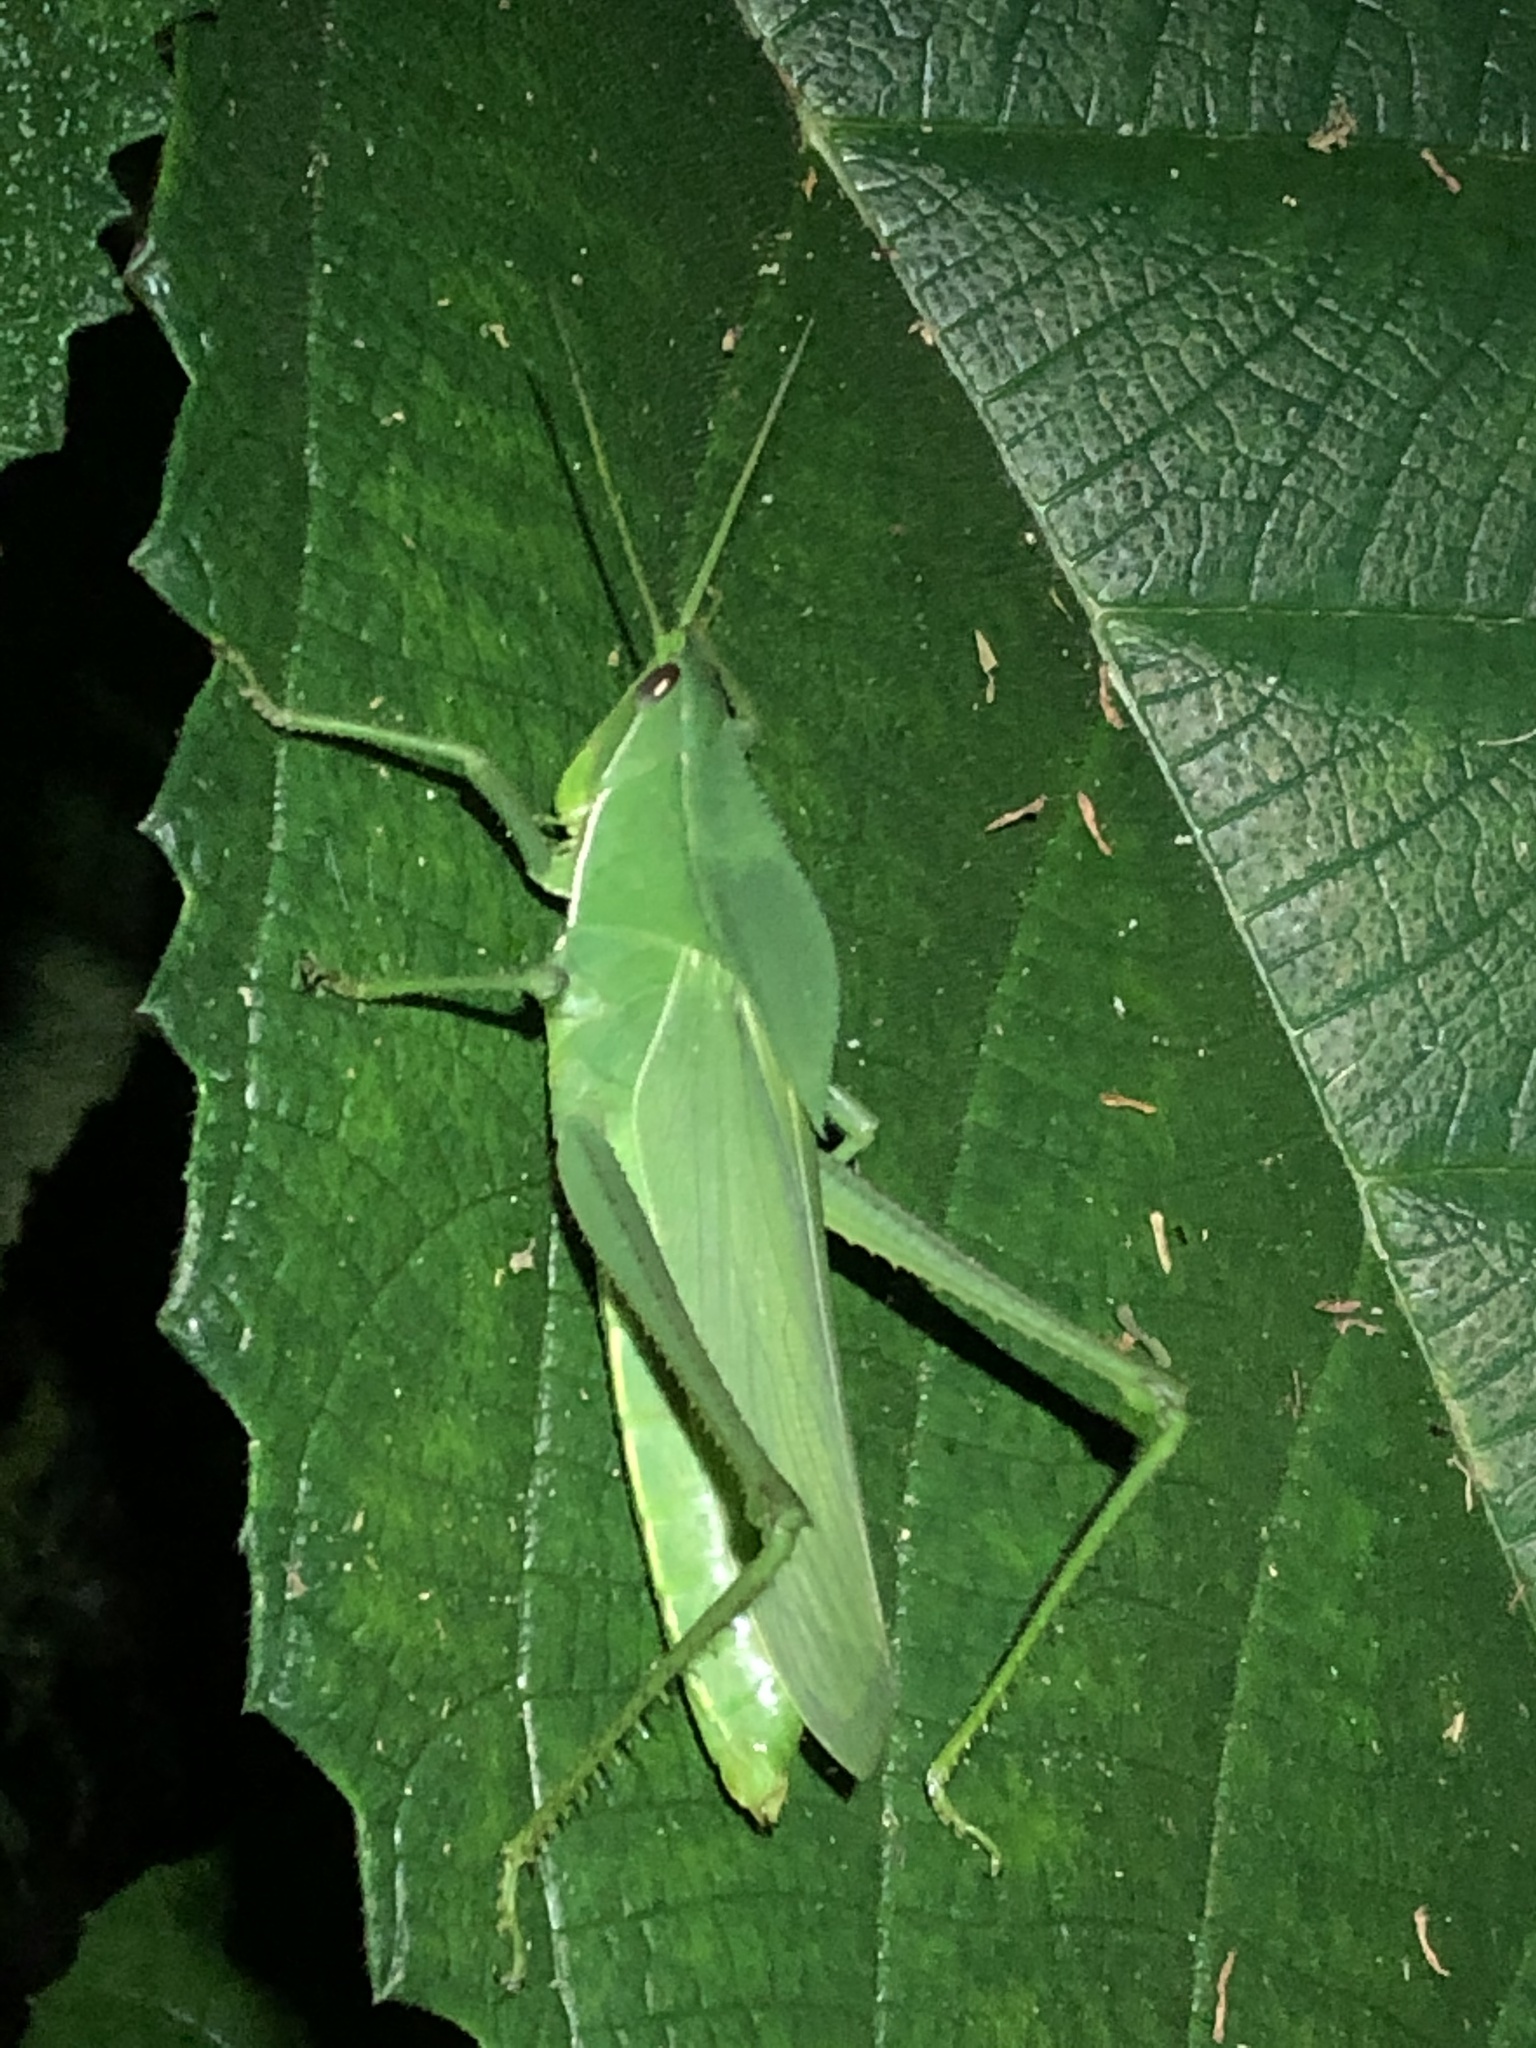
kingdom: Animalia
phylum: Arthropoda
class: Insecta
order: Orthoptera
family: Romaleidae
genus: Prionolopha
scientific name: Prionolopha serrata
